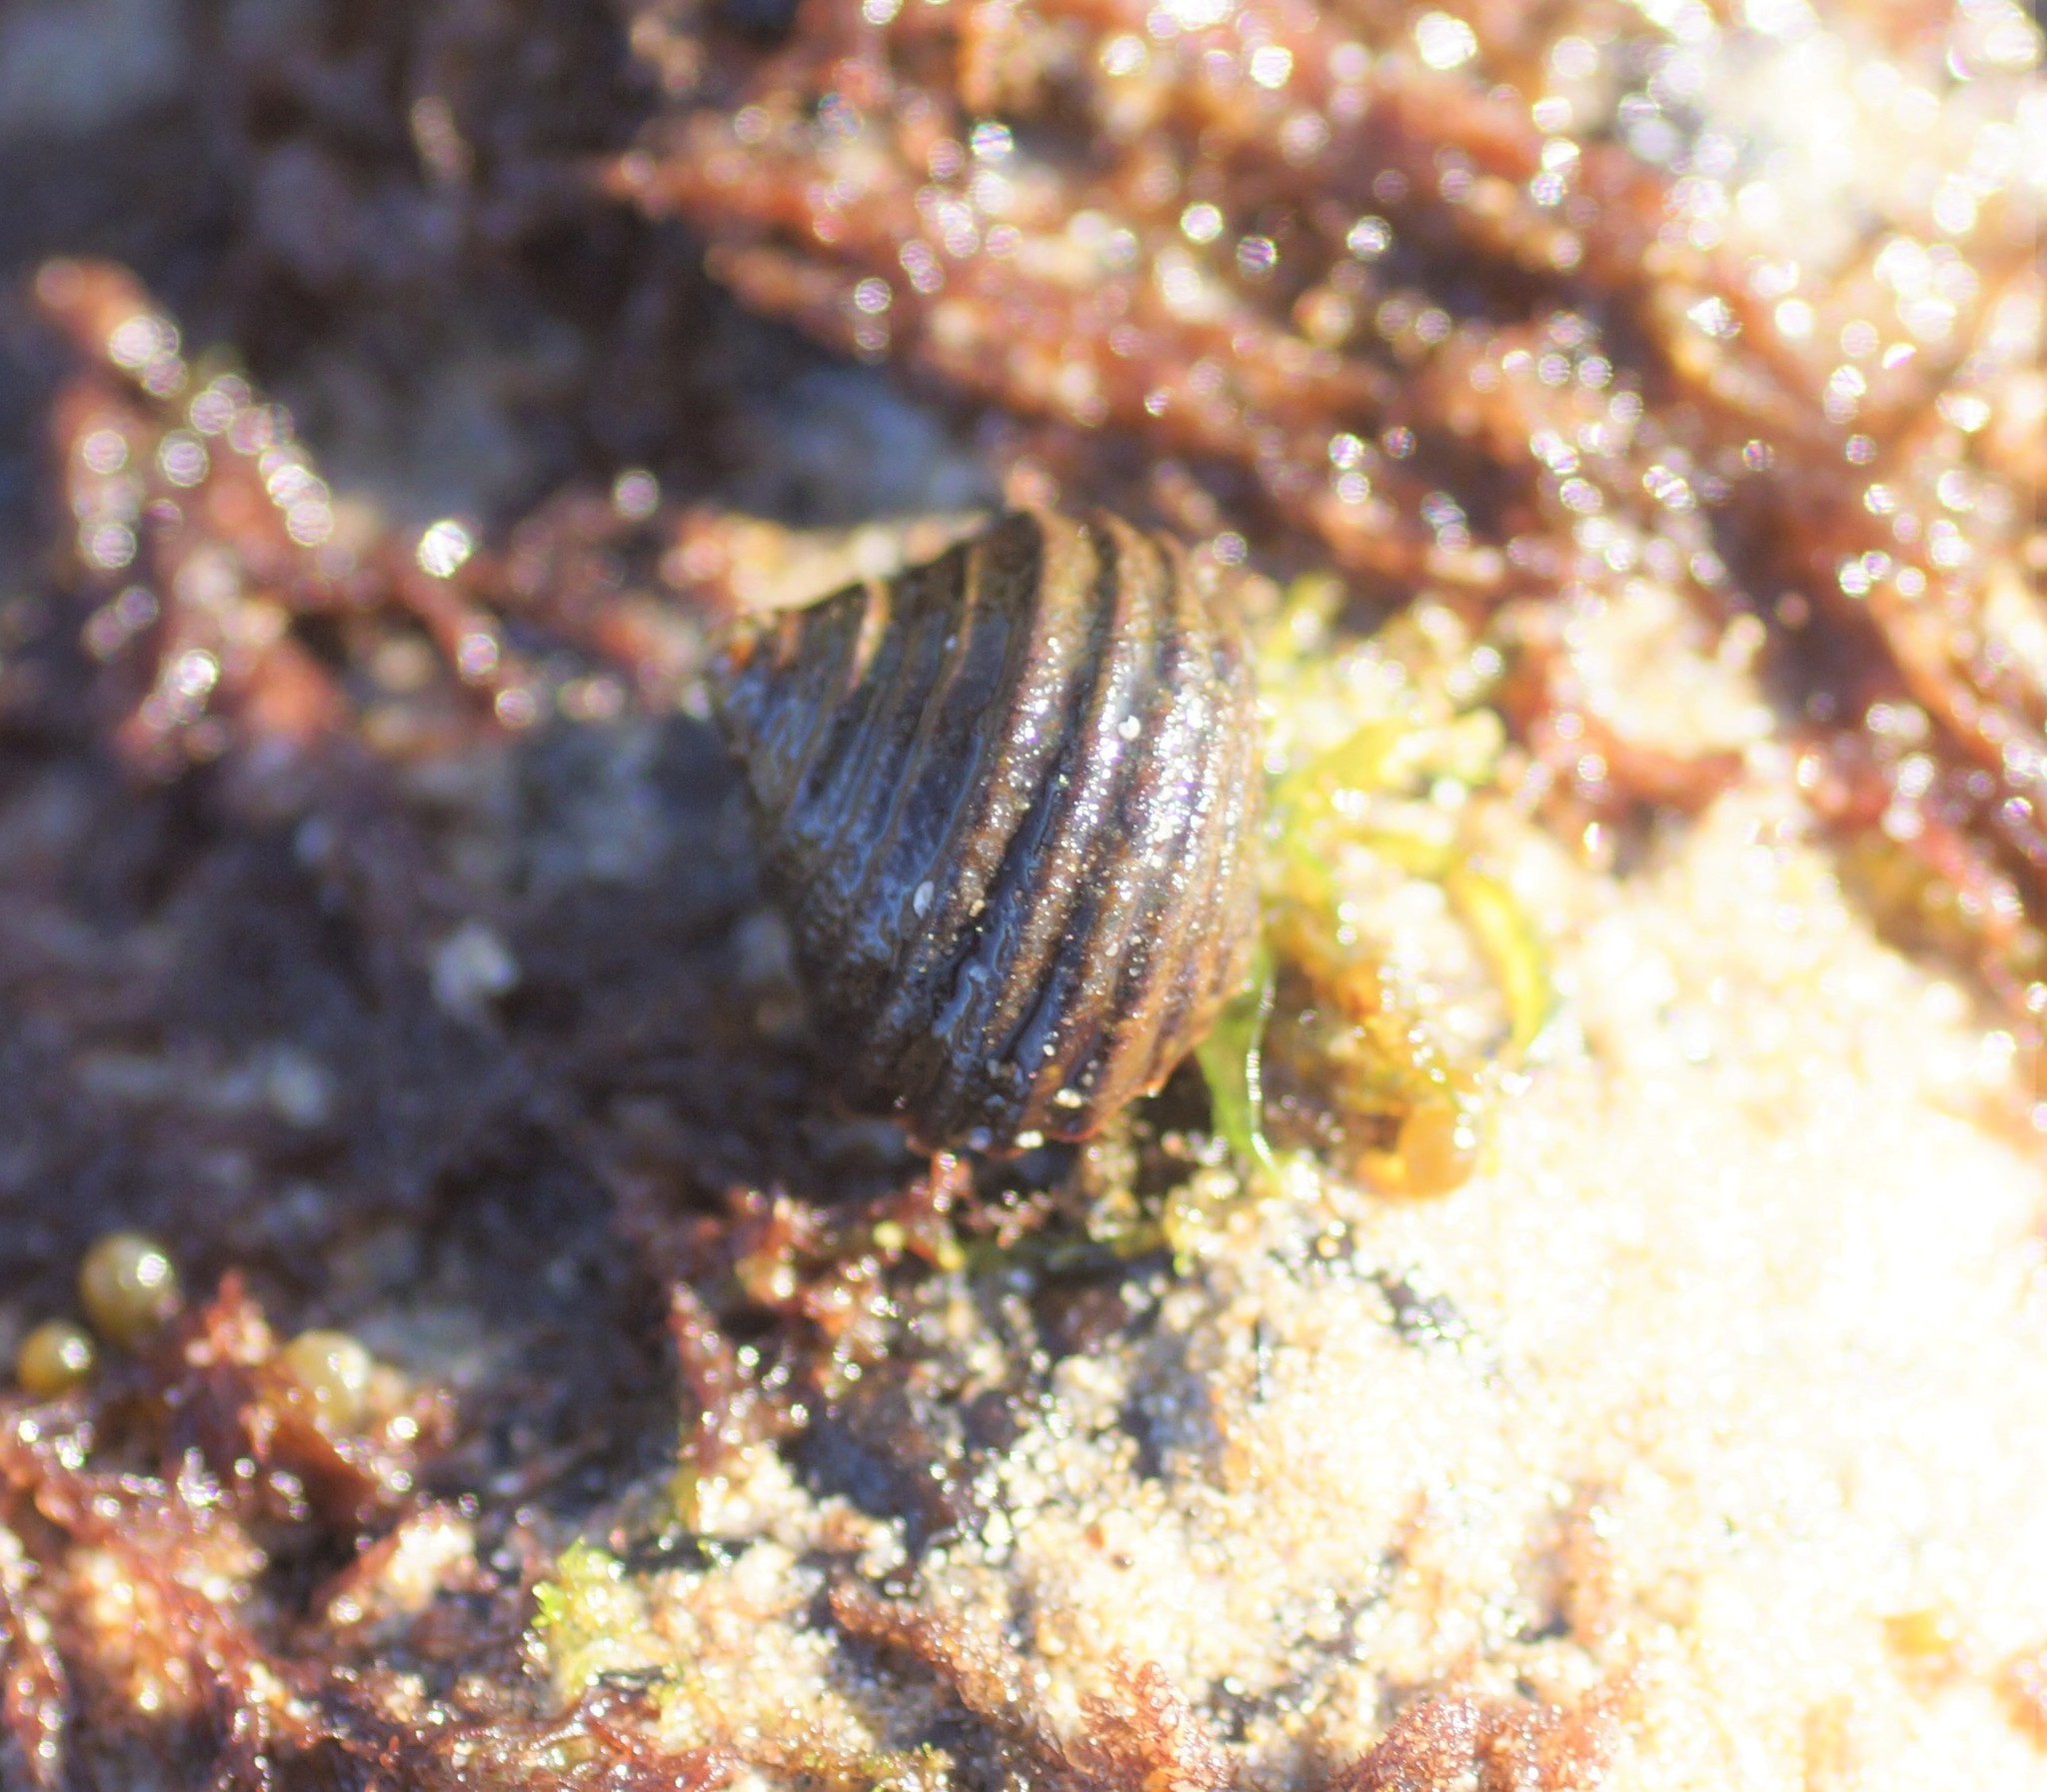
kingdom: Animalia
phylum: Mollusca
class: Gastropoda
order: Trochida
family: Trochidae
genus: Austrocochlea
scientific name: Austrocochlea constricta
